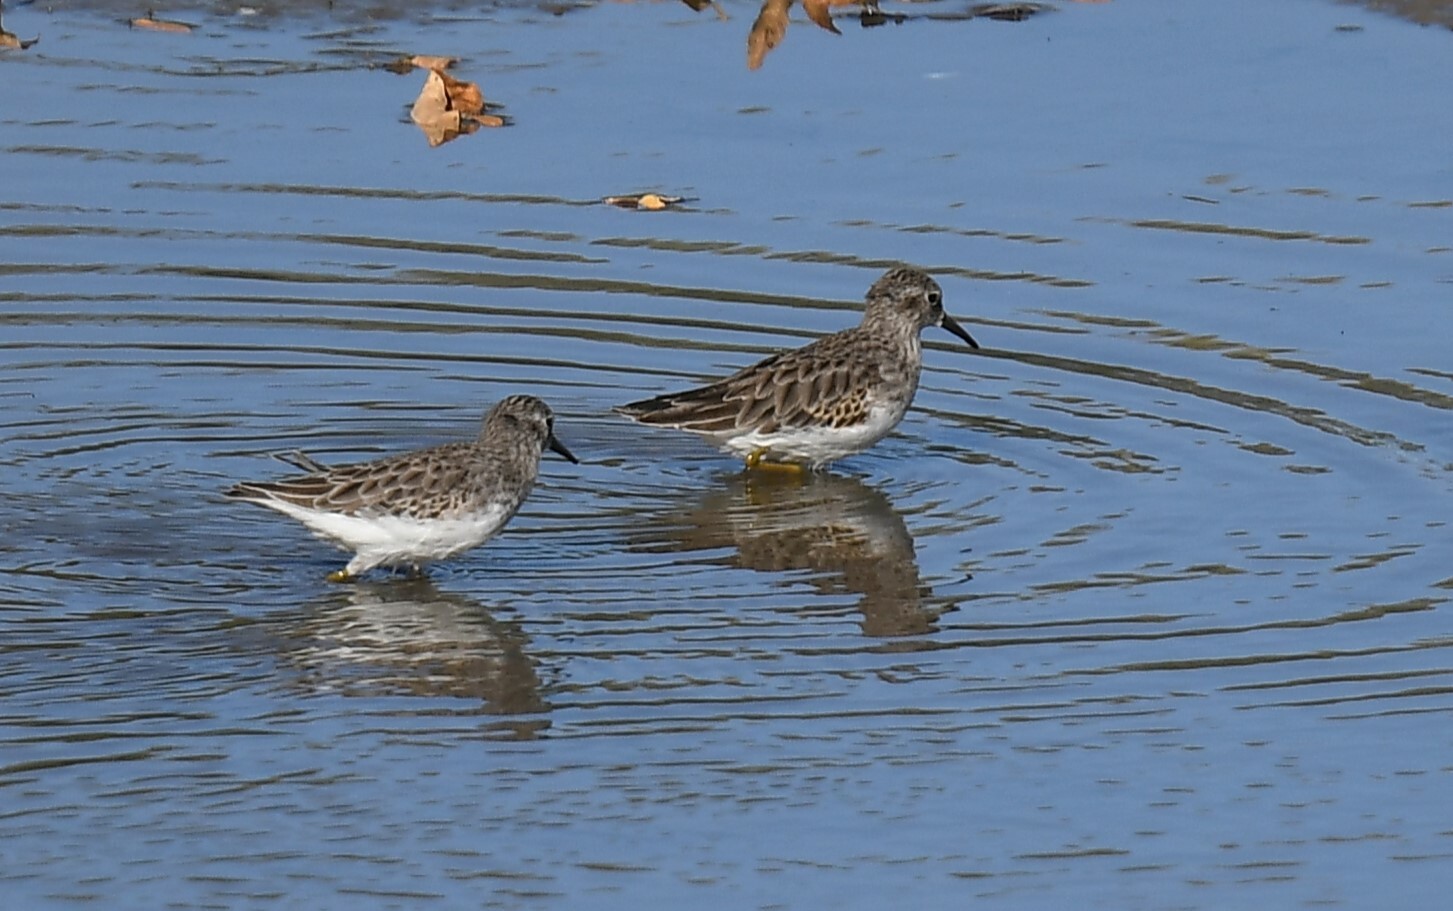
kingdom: Animalia
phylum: Chordata
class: Aves
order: Charadriiformes
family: Scolopacidae
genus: Calidris
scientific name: Calidris minutilla
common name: Least sandpiper
